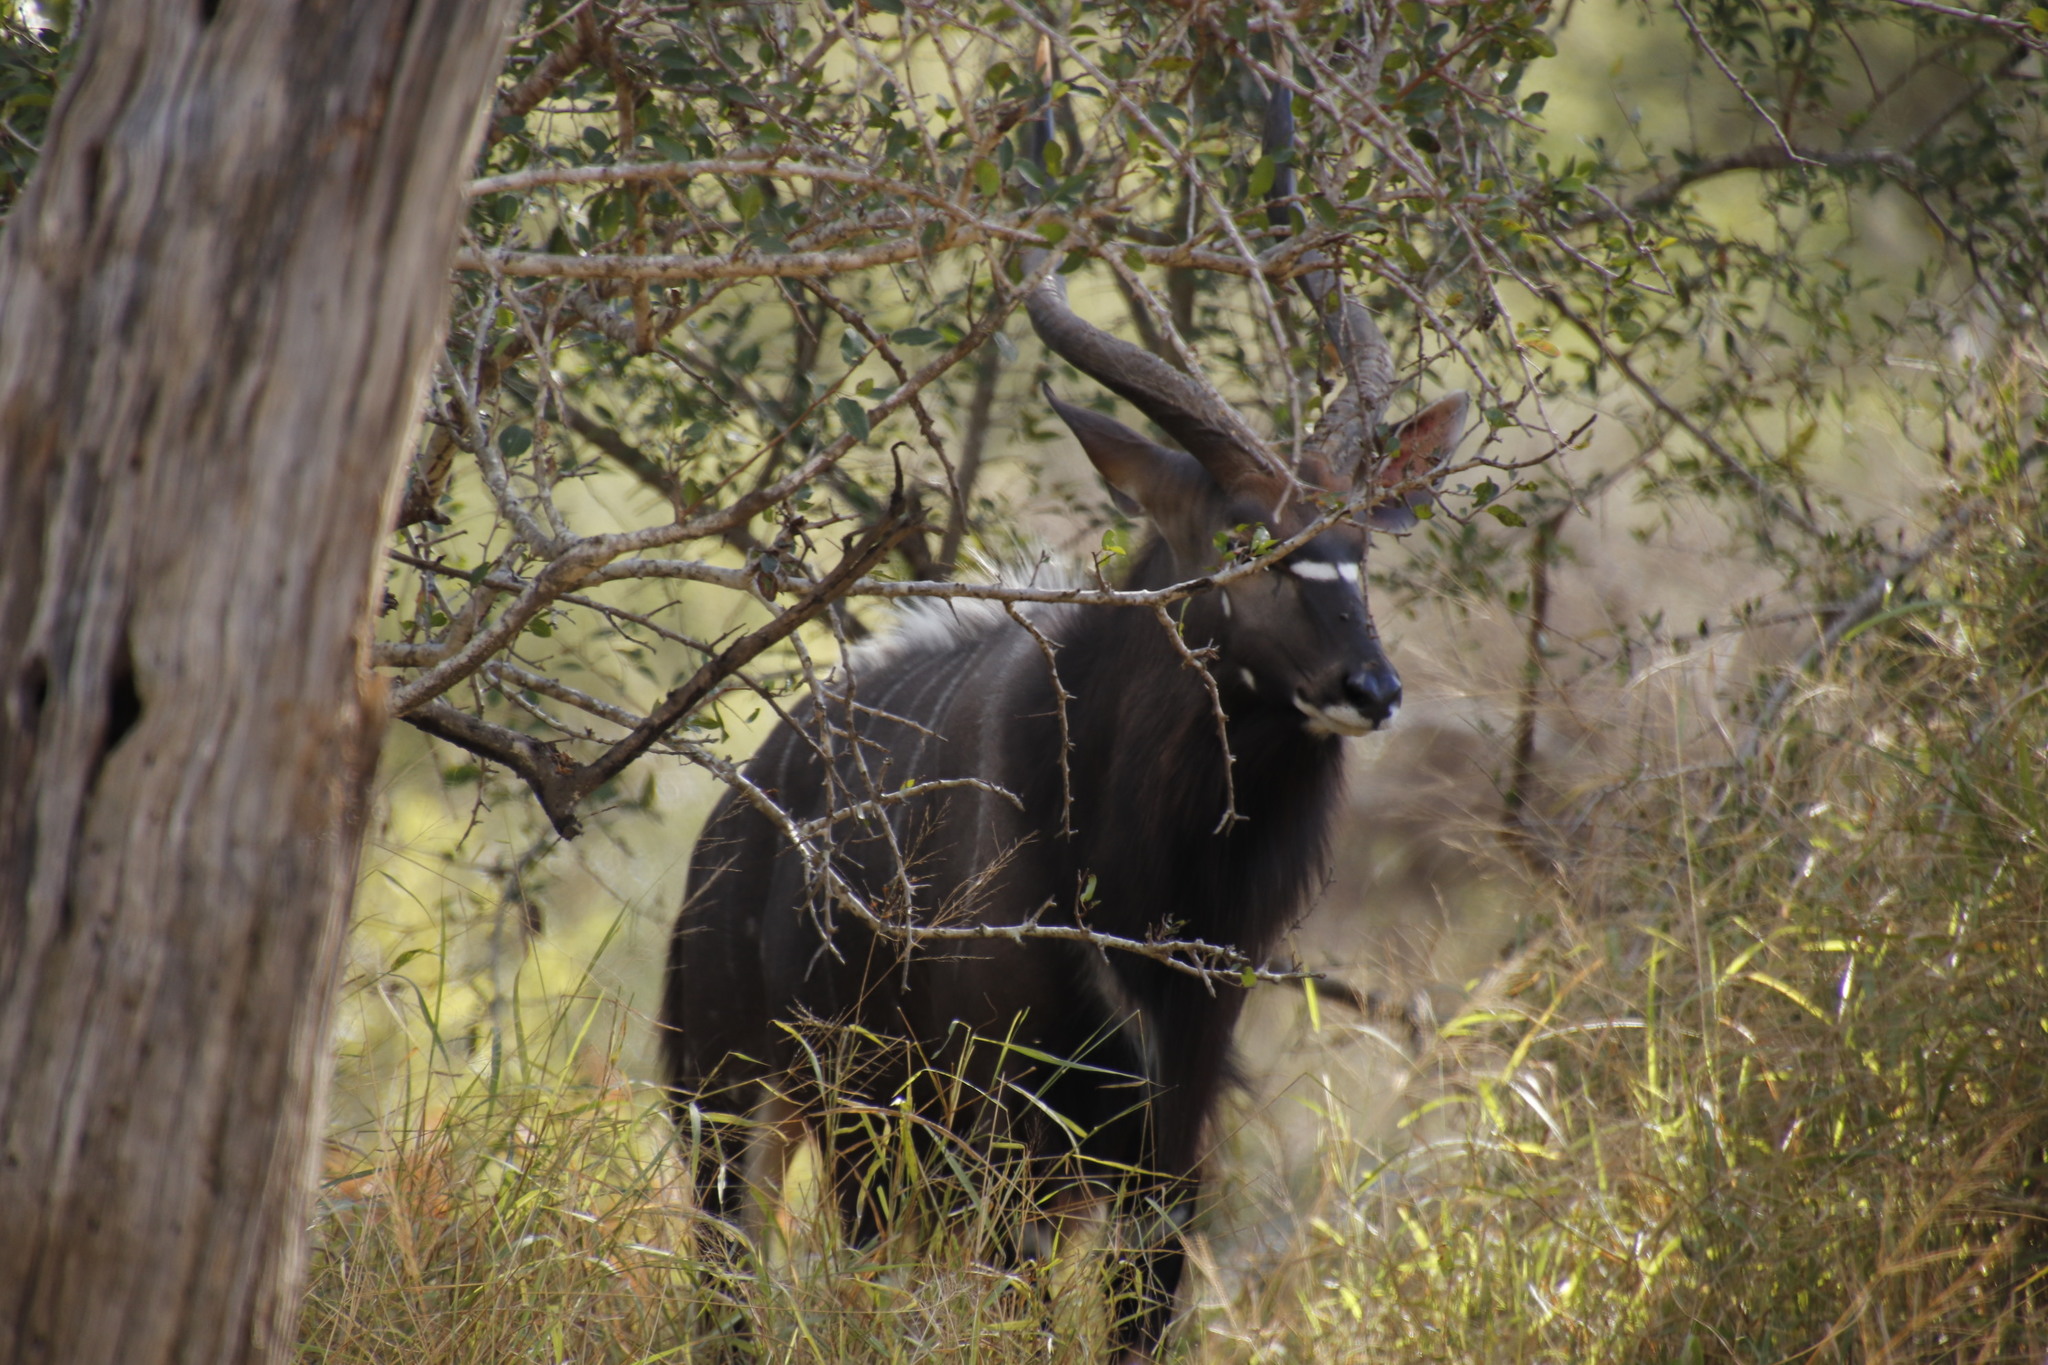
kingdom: Animalia
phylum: Chordata
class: Mammalia
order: Artiodactyla
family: Bovidae
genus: Tragelaphus
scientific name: Tragelaphus angasii
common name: Nyala
